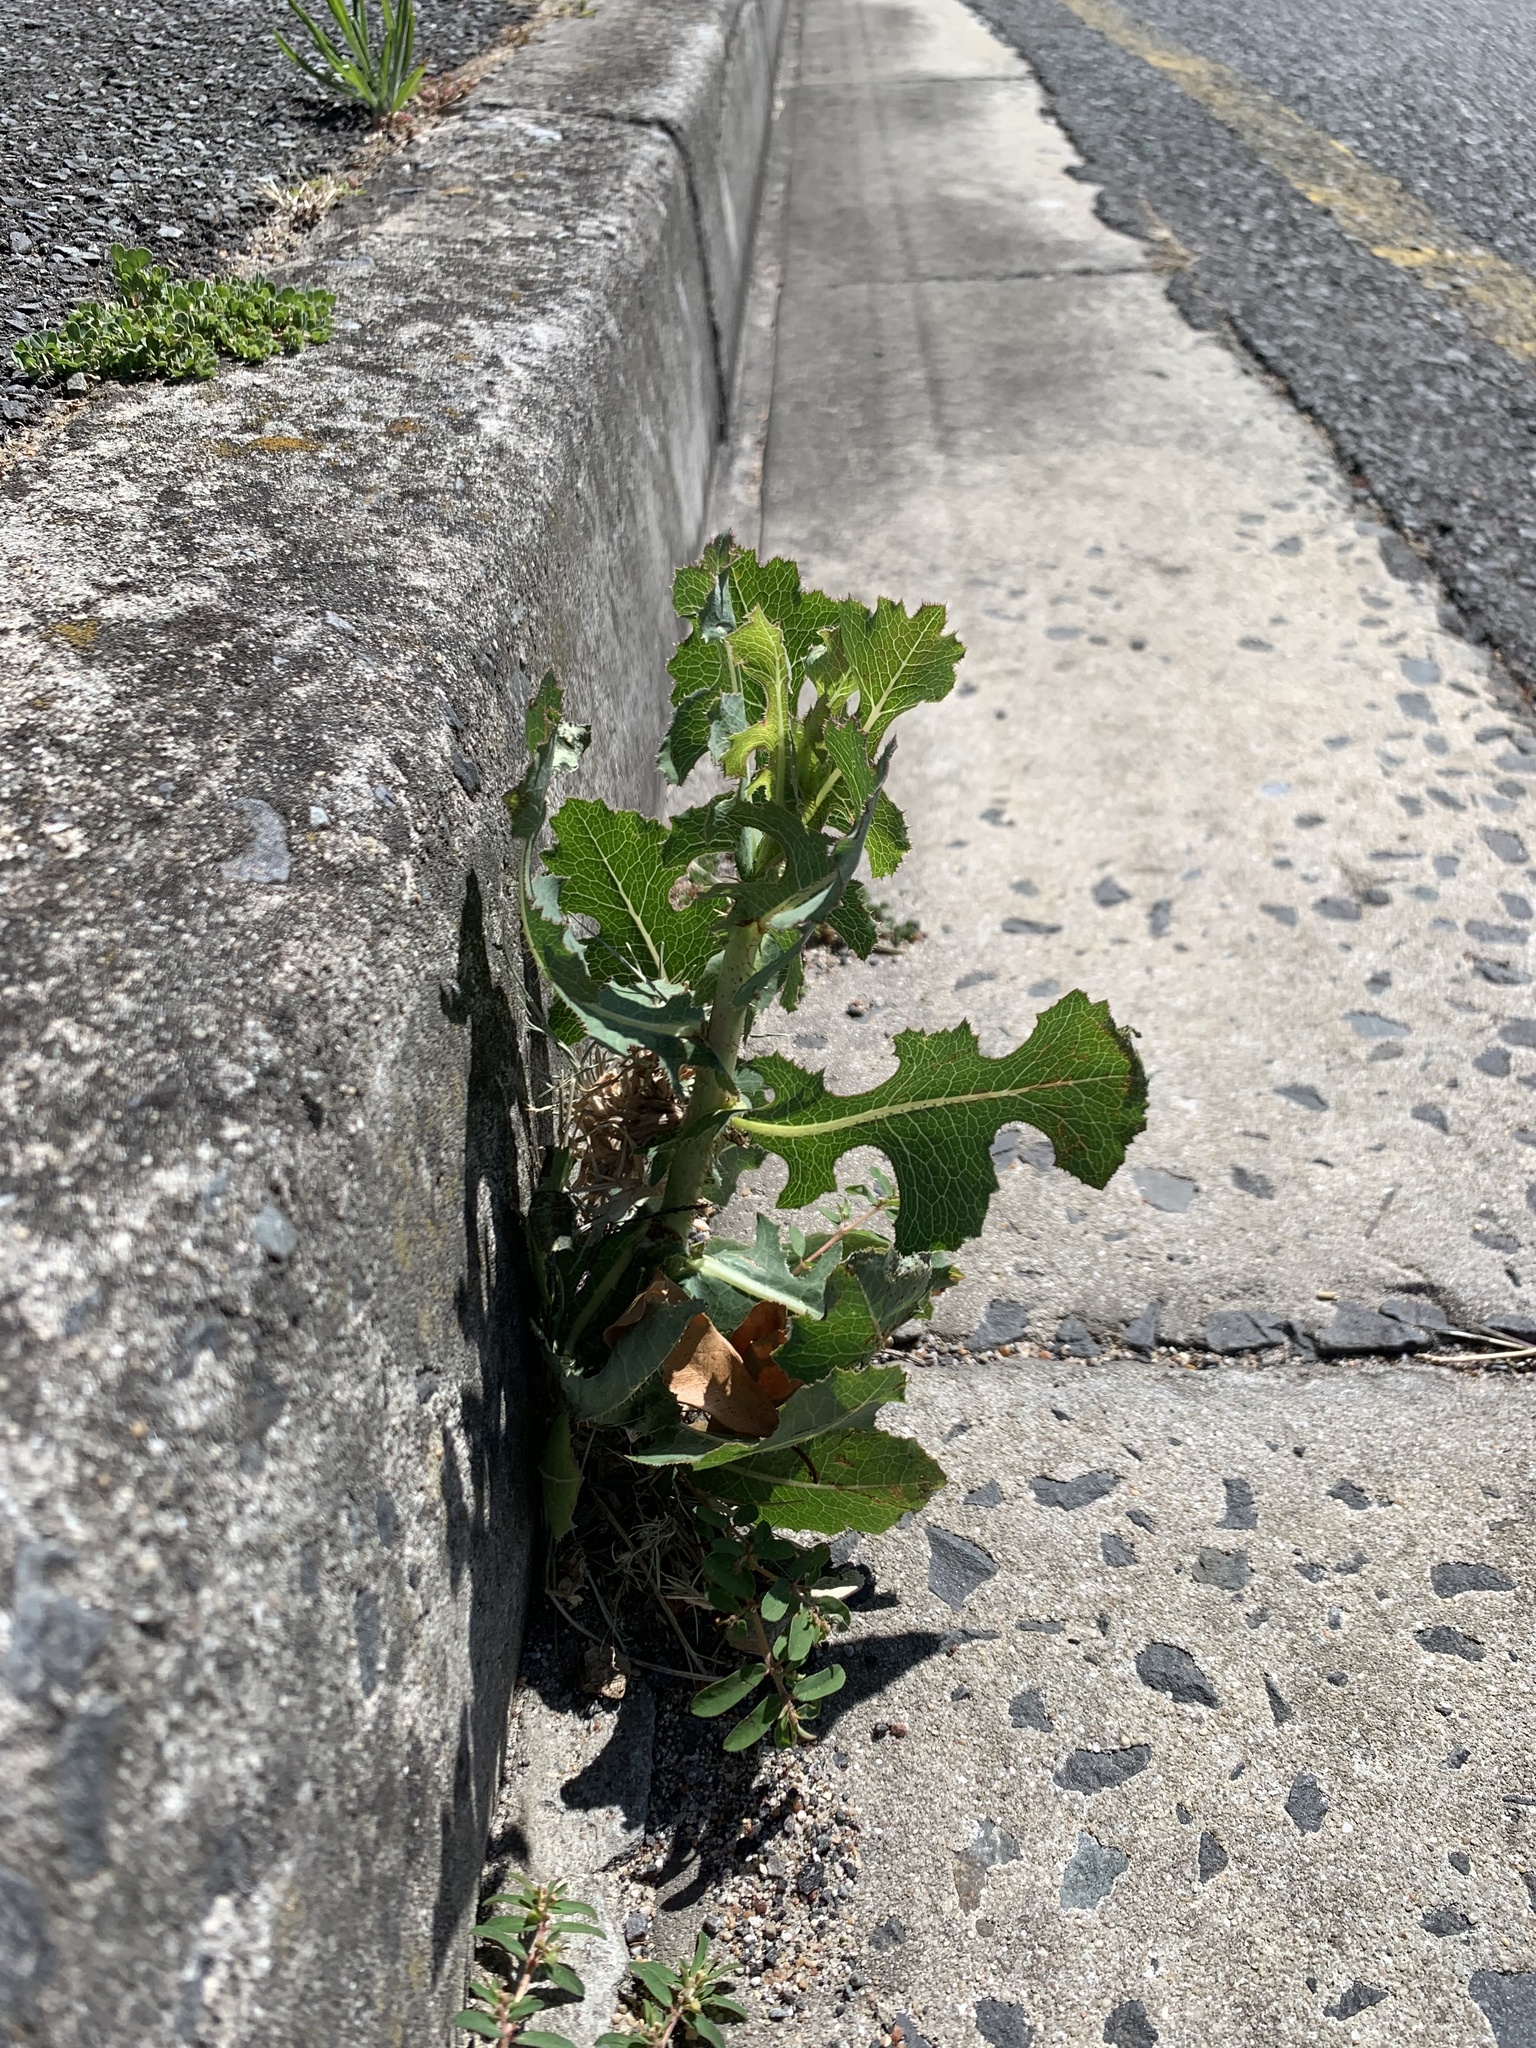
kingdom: Plantae
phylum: Tracheophyta
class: Magnoliopsida
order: Asterales
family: Asteraceae
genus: Lactuca
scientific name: Lactuca serriola
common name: Prickly lettuce
